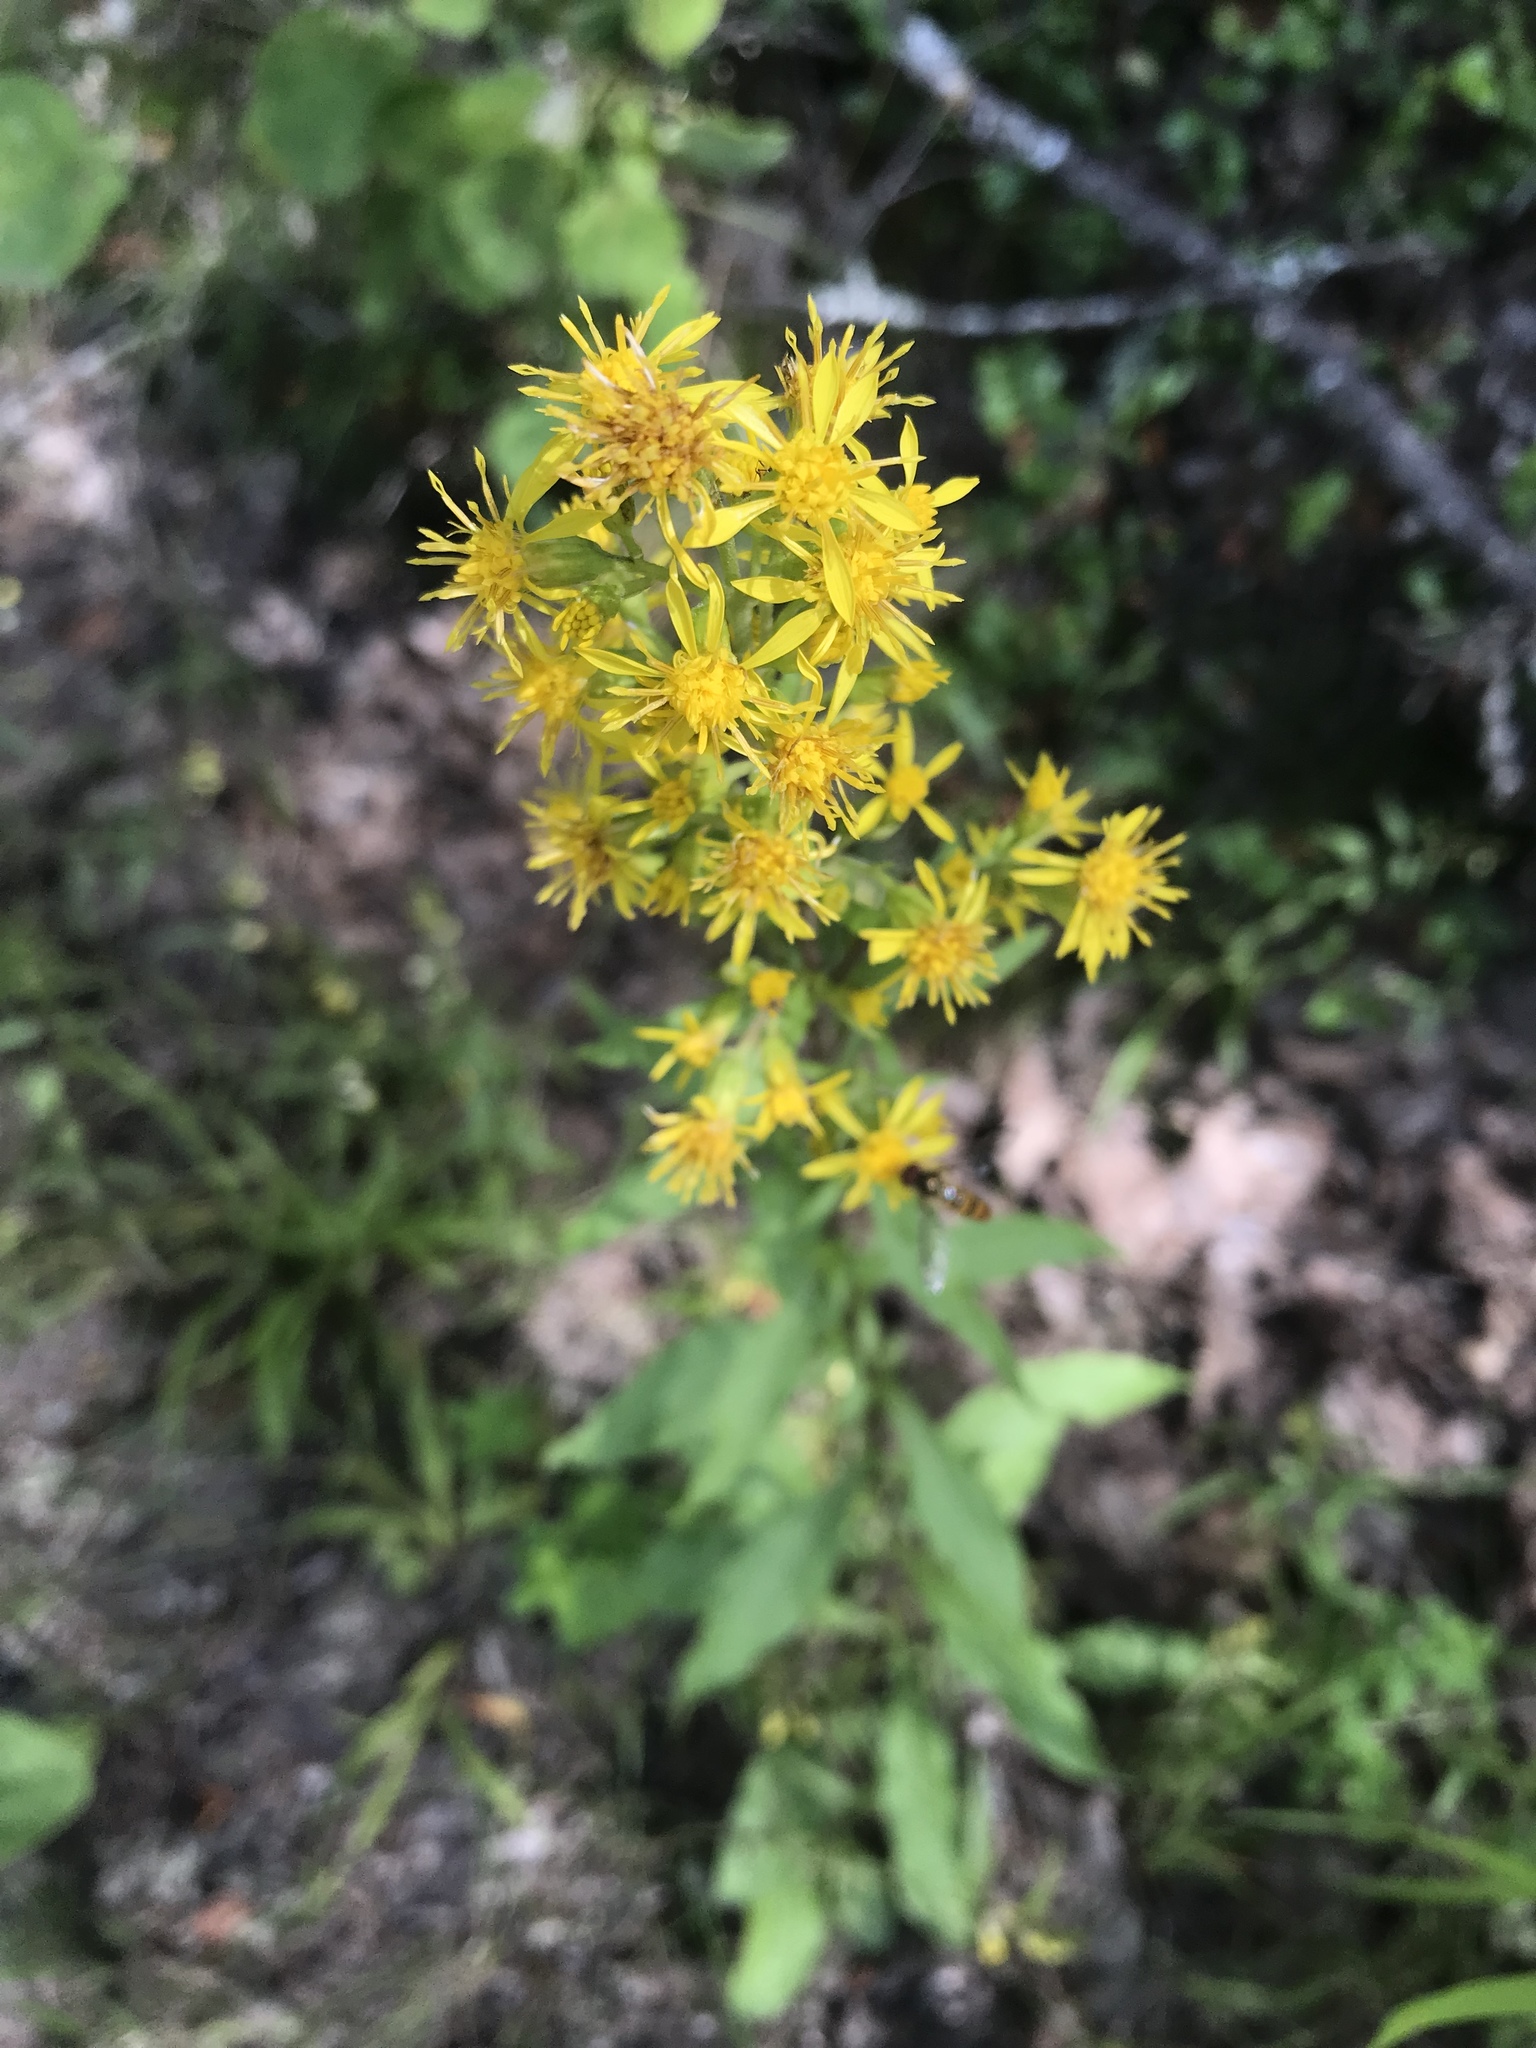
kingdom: Plantae
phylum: Tracheophyta
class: Magnoliopsida
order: Asterales
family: Asteraceae
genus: Solidago
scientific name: Solidago virgaurea
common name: Goldenrod
